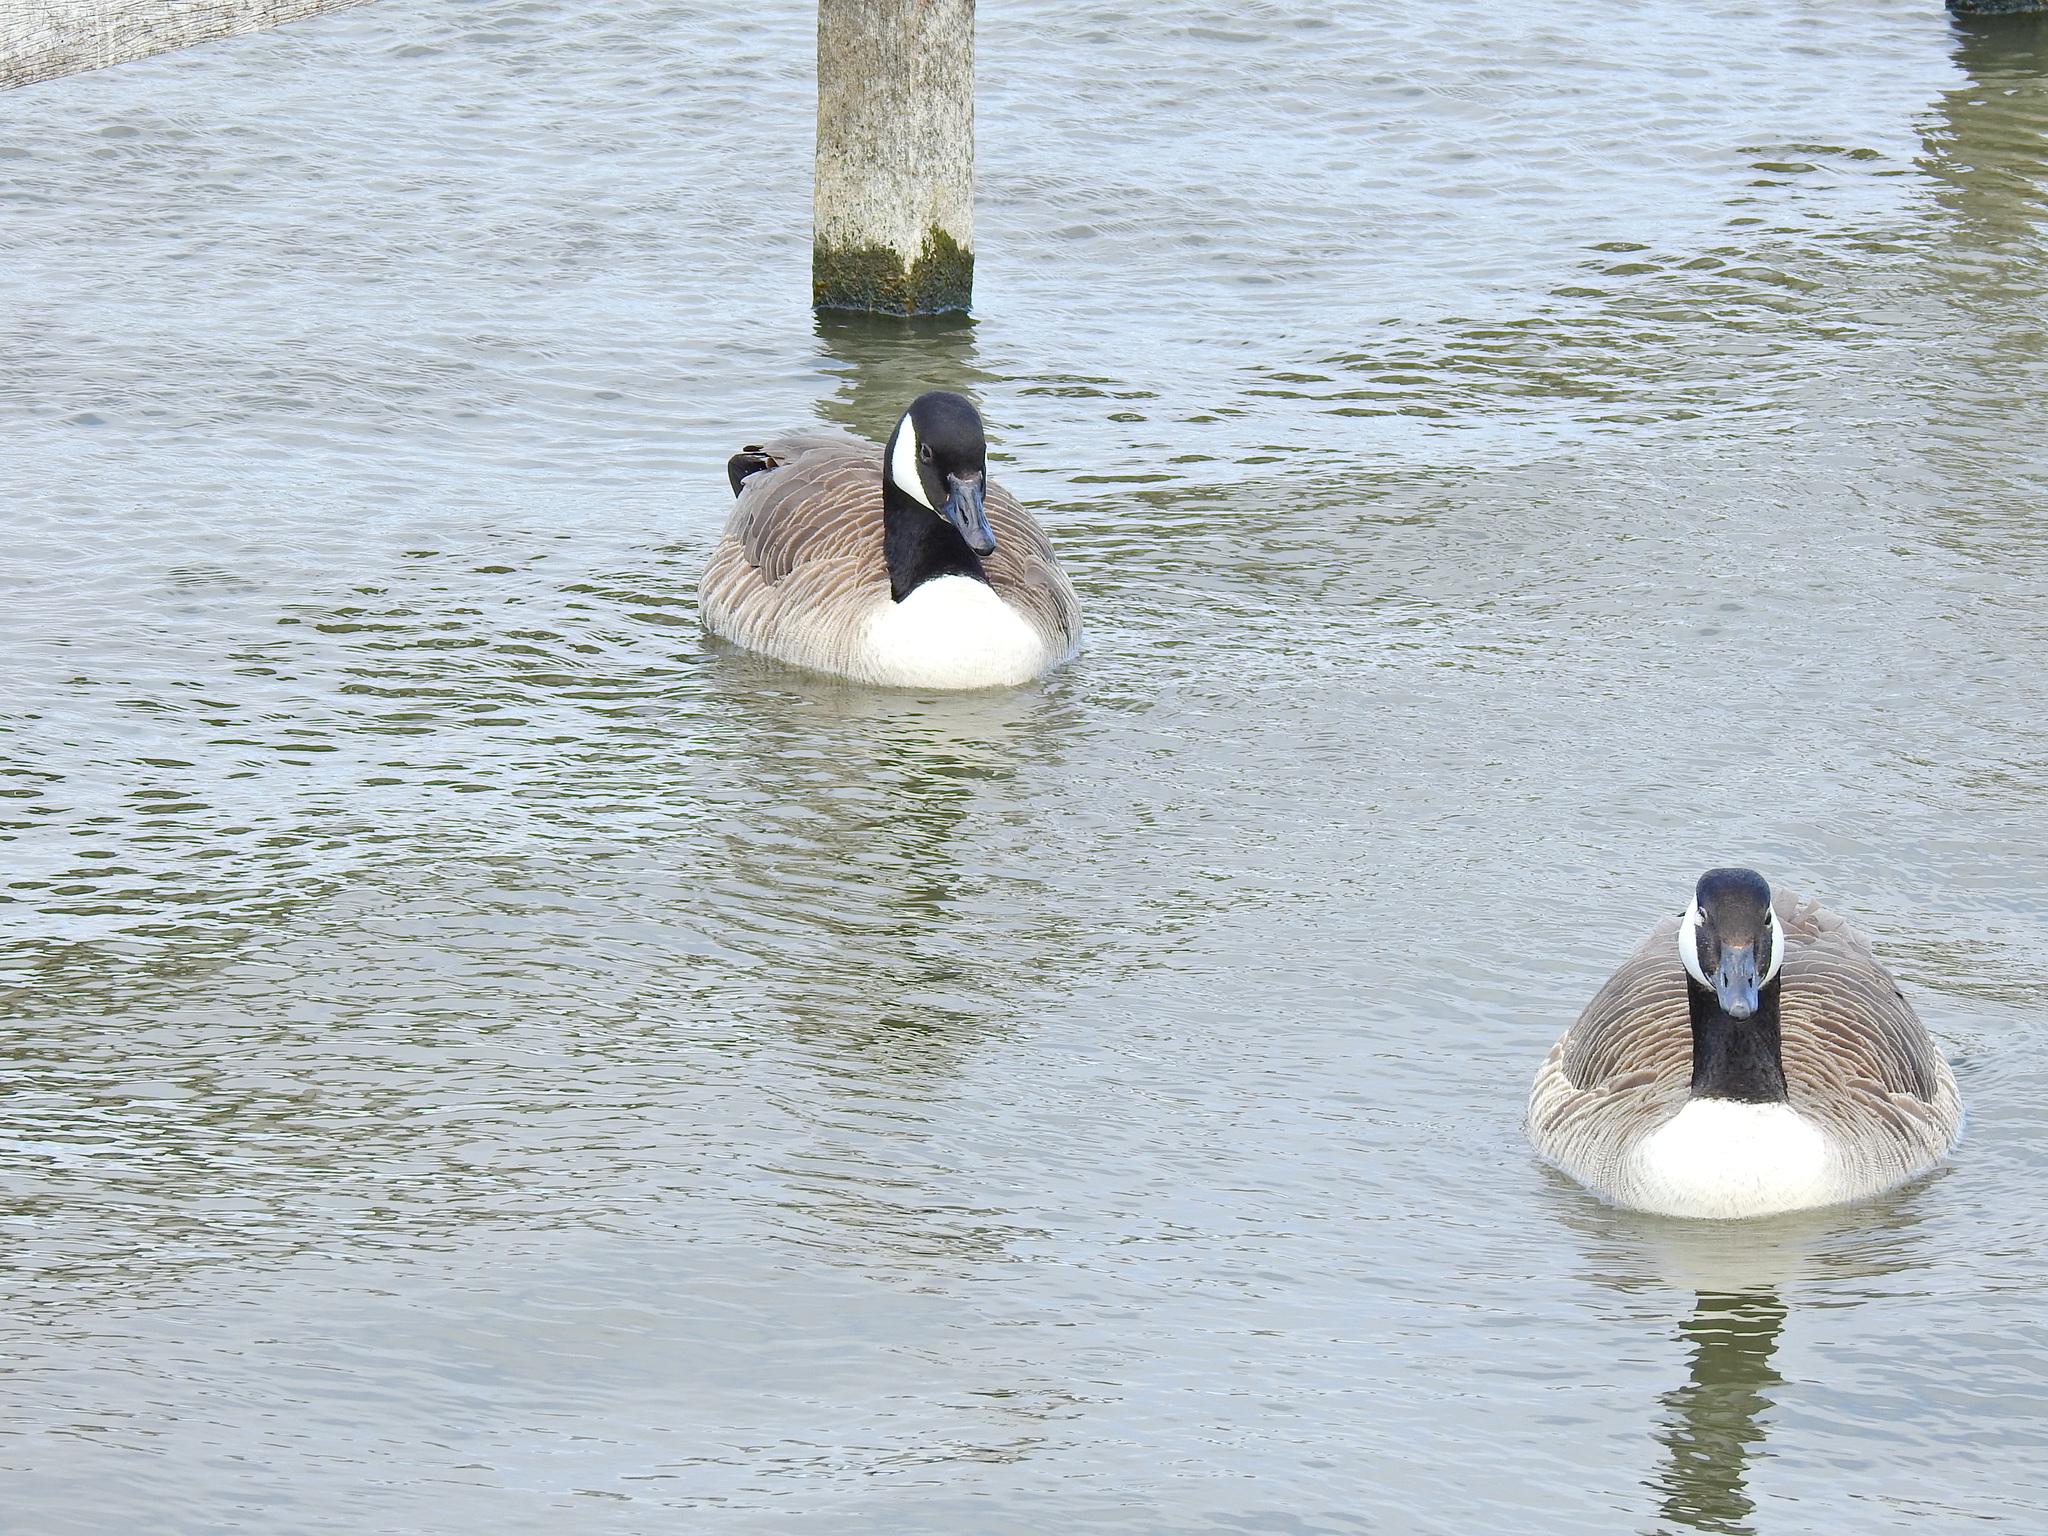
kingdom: Animalia
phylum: Chordata
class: Aves
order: Anseriformes
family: Anatidae
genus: Branta
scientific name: Branta canadensis
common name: Canada goose
